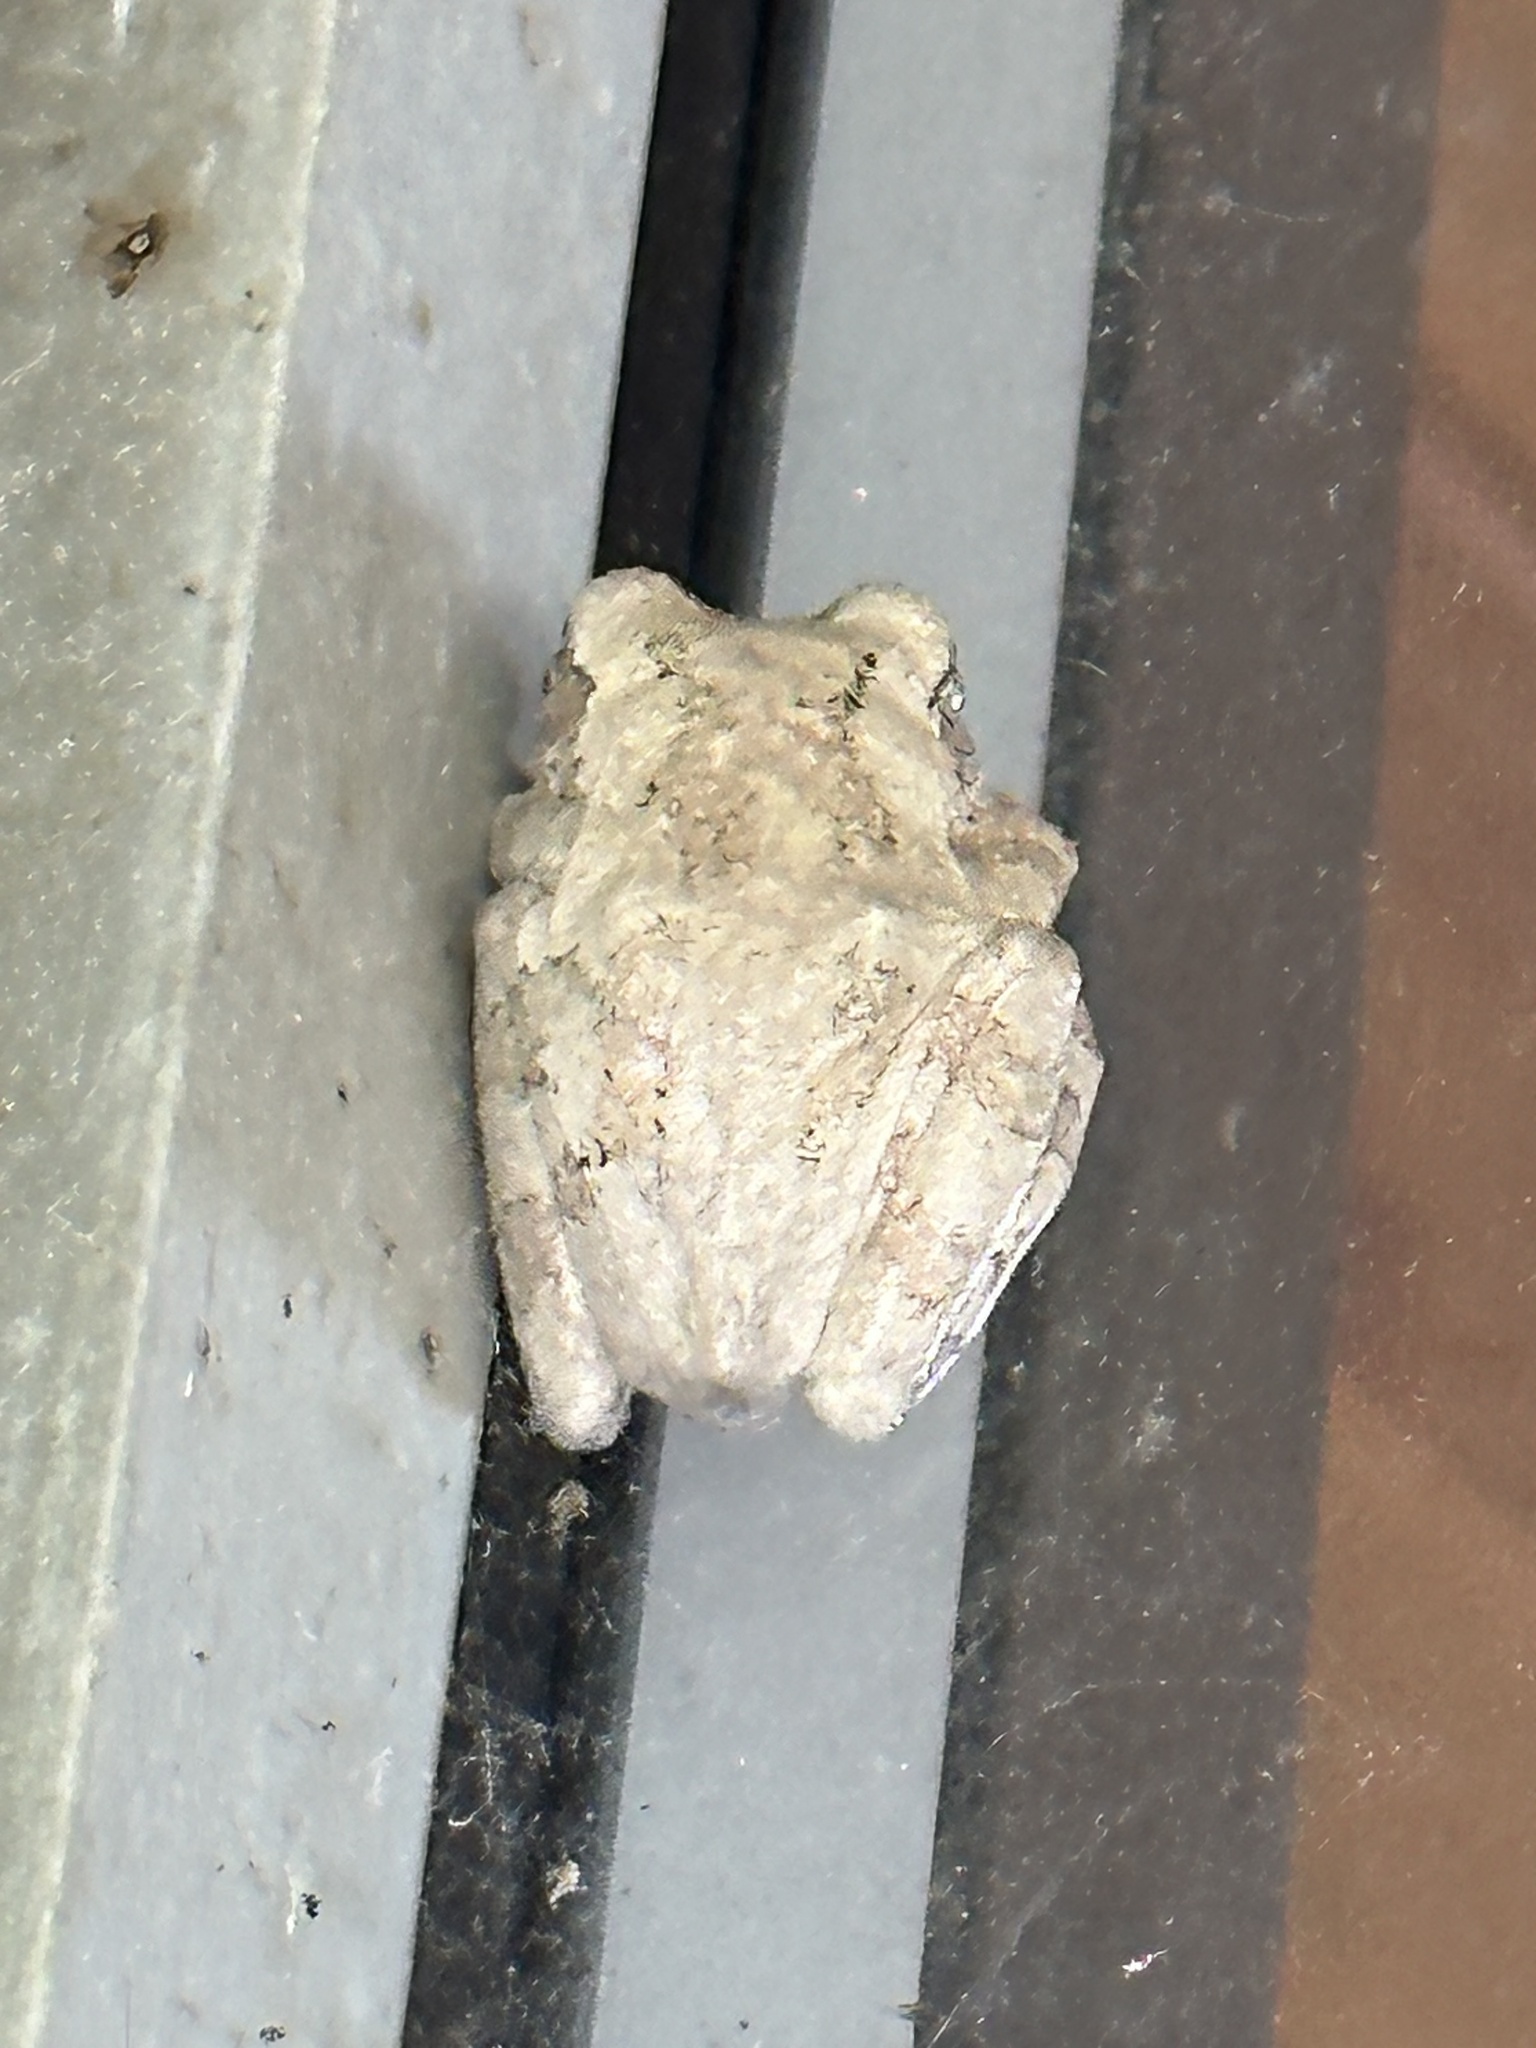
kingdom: Animalia
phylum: Chordata
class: Amphibia
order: Anura
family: Hylidae
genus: Dryophytes
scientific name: Dryophytes chrysoscelis
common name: Cope's gray treefrog
